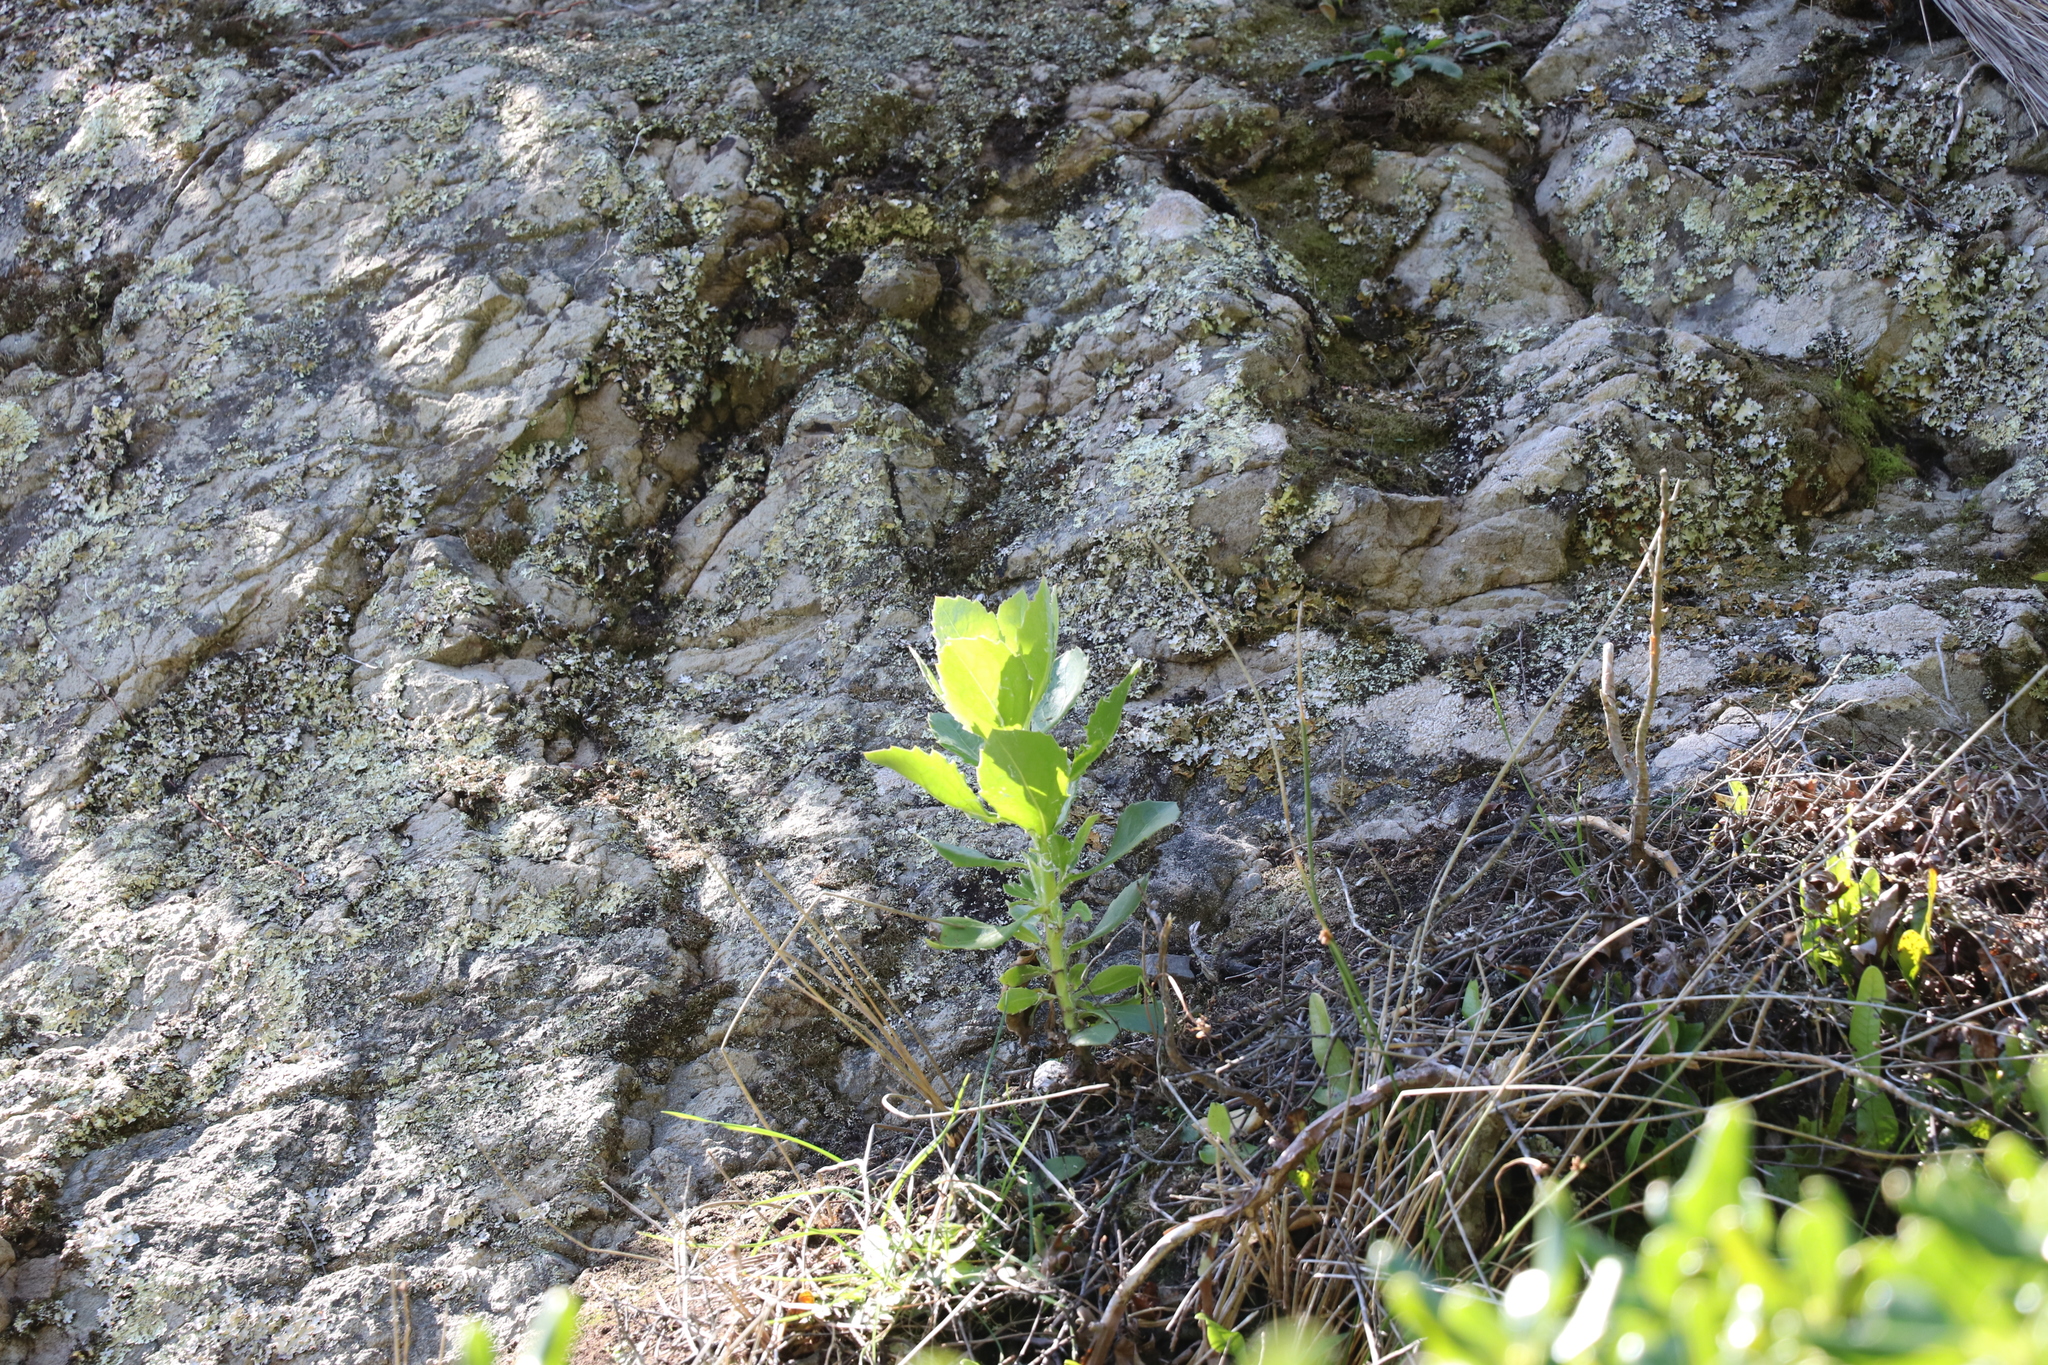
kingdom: Plantae
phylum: Tracheophyta
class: Magnoliopsida
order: Asterales
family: Asteraceae
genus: Osteospermum
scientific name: Osteospermum moniliferum
